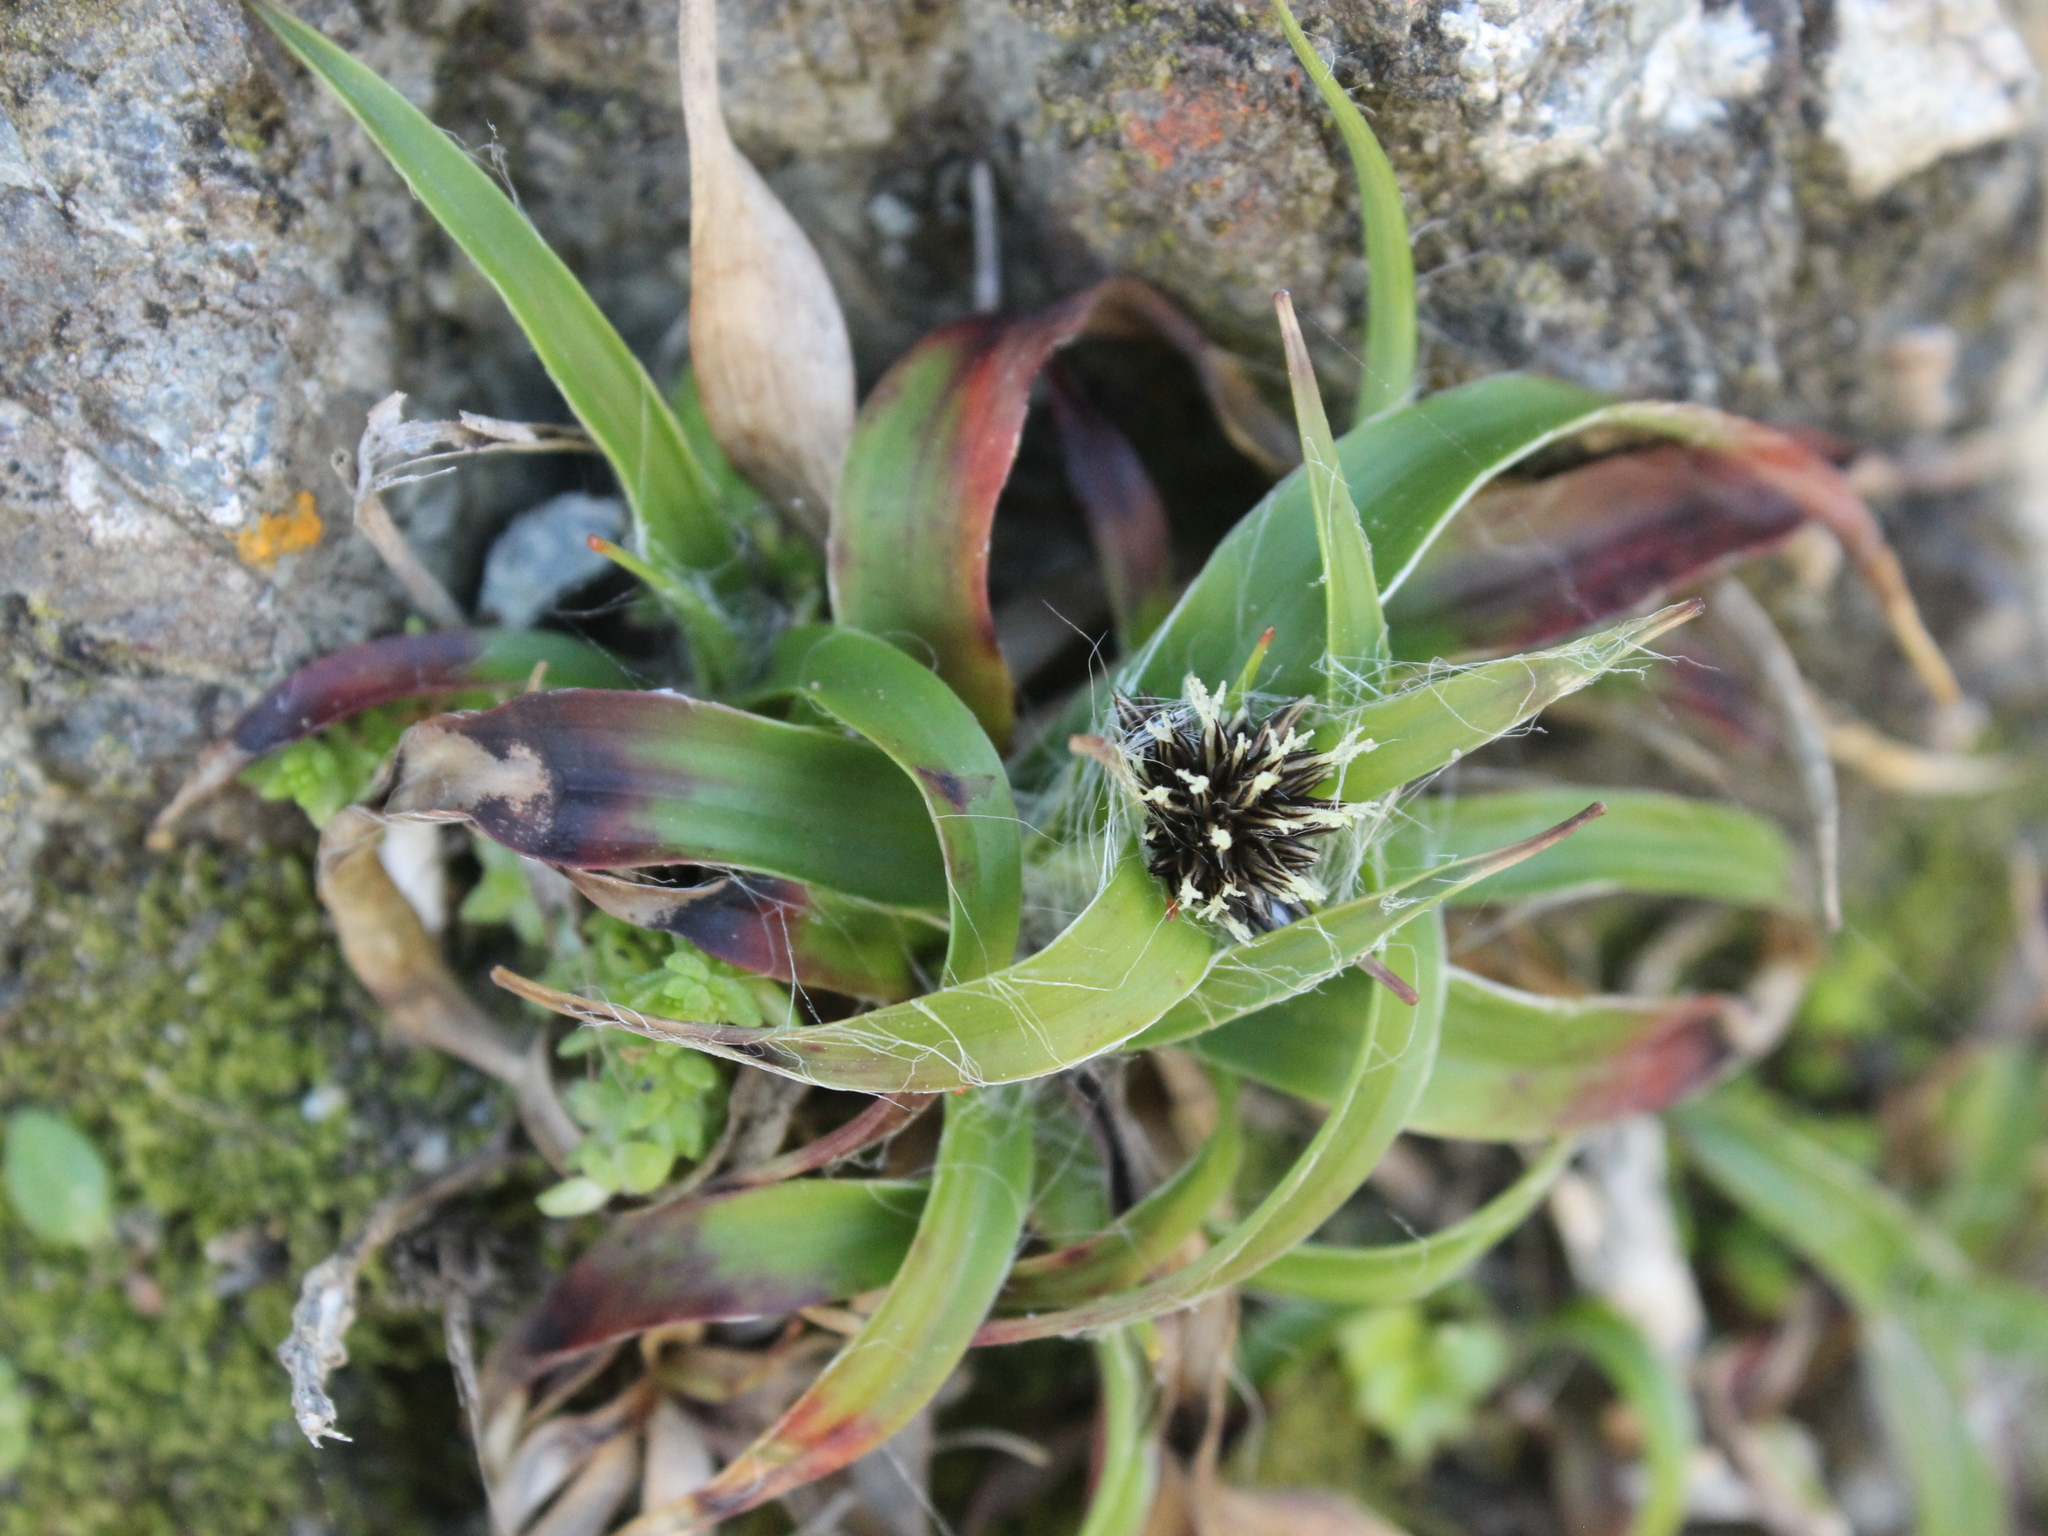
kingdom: Plantae
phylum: Tracheophyta
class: Liliopsida
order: Poales
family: Juncaceae
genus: Luzula
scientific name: Luzula banksiana
